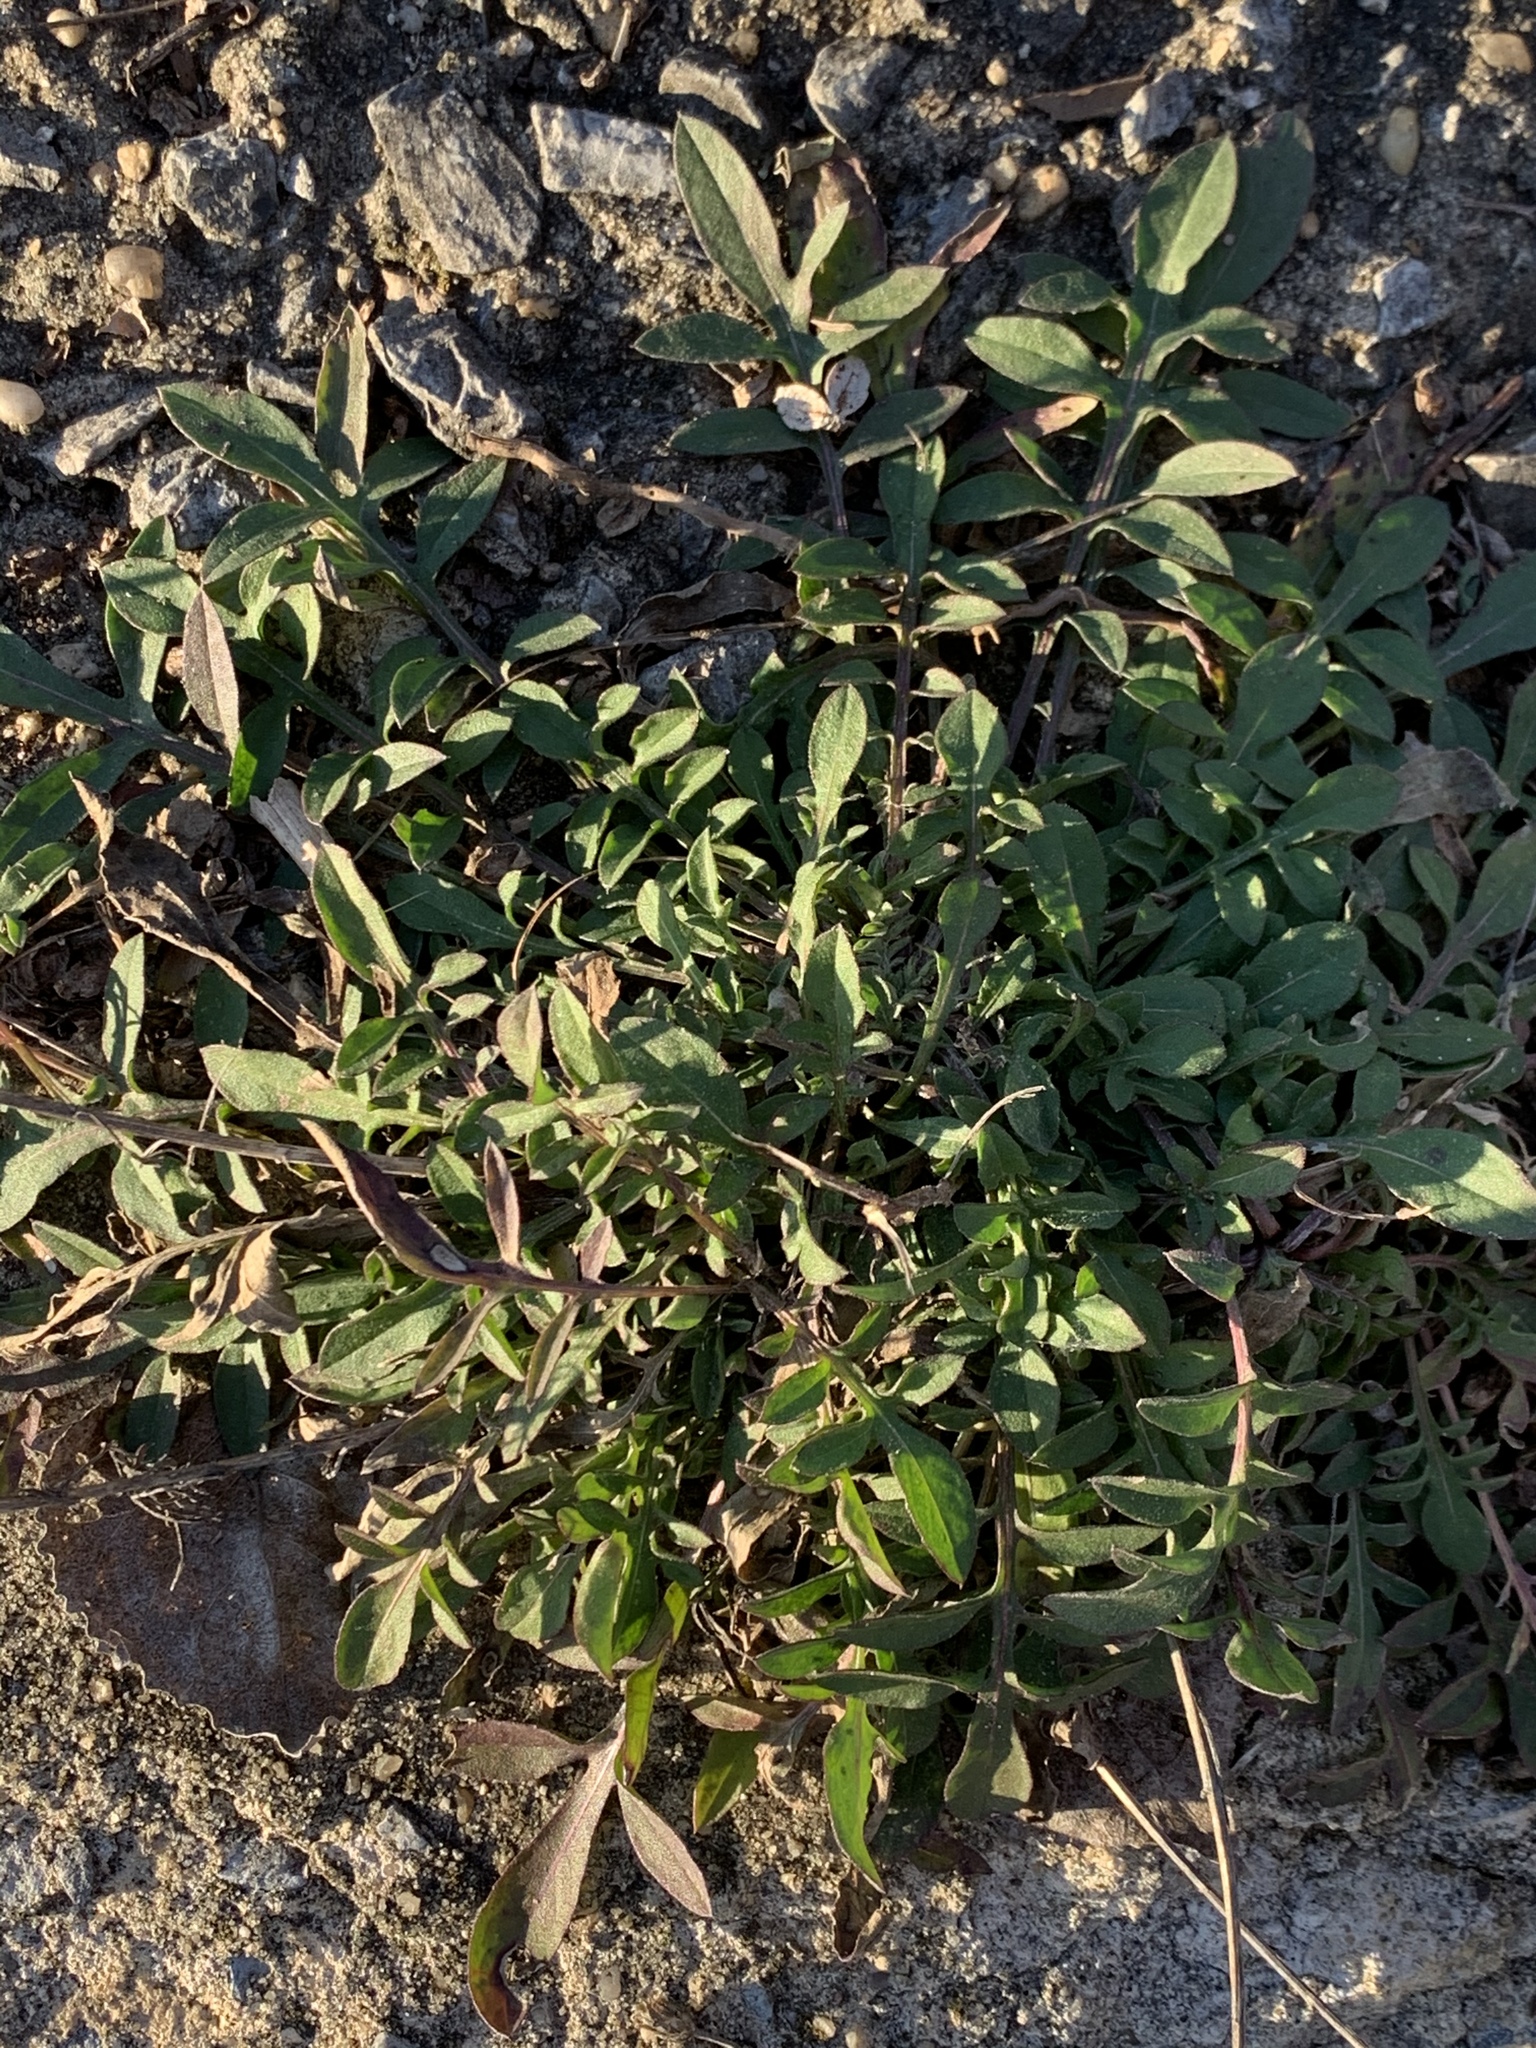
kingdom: Plantae
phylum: Tracheophyta
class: Magnoliopsida
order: Asterales
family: Asteraceae
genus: Centaurea
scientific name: Centaurea stoebe
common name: Spotted knapweed
